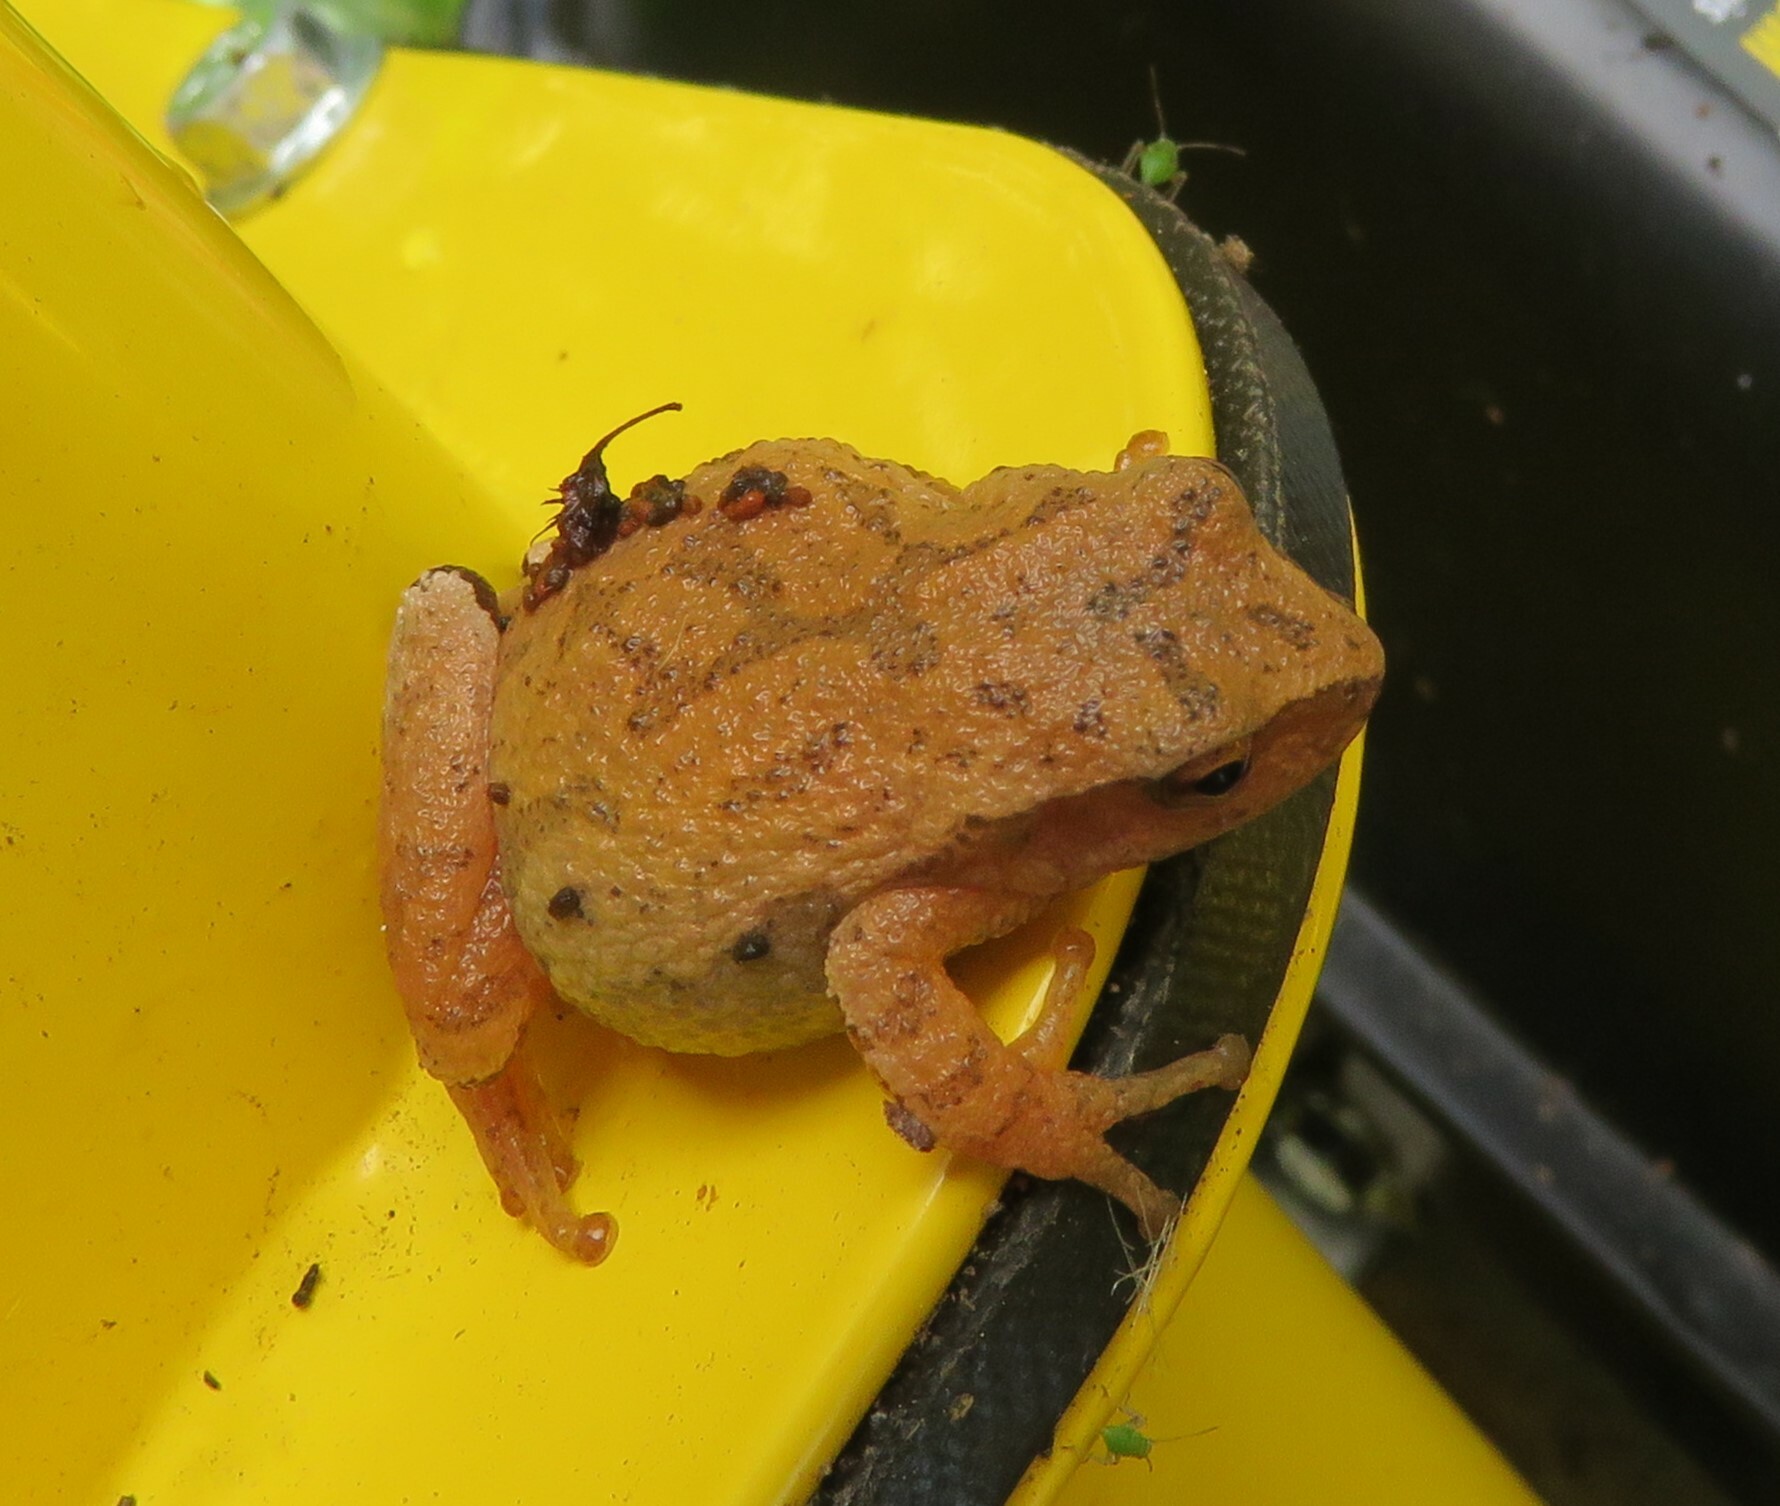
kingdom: Animalia
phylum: Chordata
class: Amphibia
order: Anura
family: Hylidae
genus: Pseudacris
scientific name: Pseudacris crucifer
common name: Spring peeper
